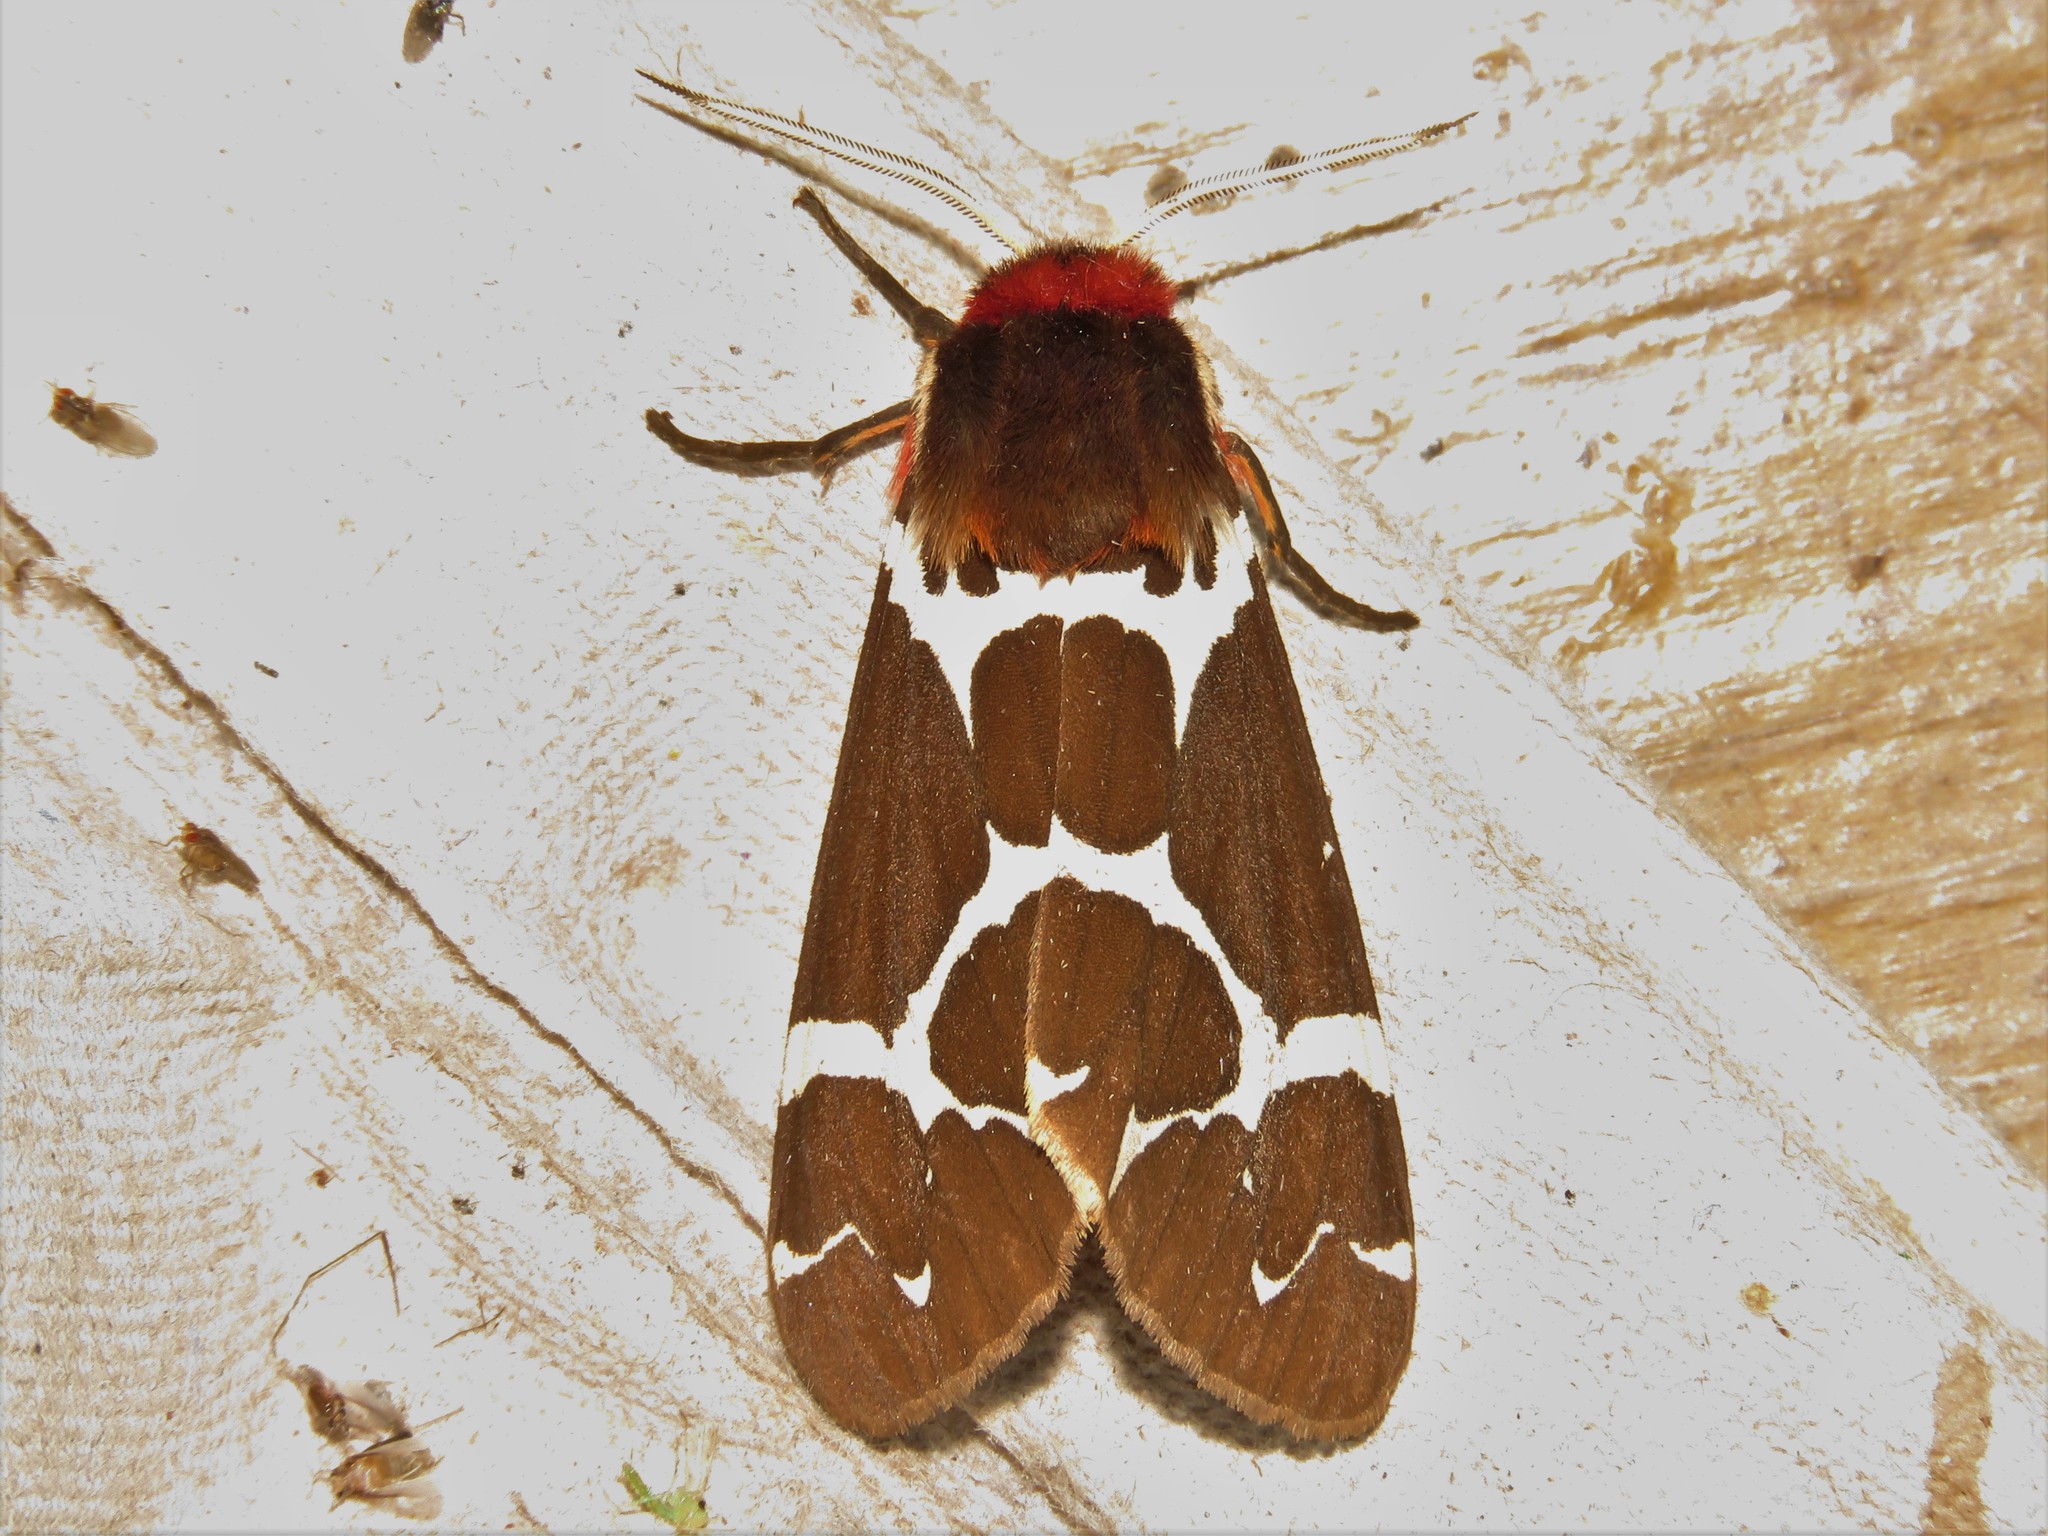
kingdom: Animalia
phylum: Arthropoda
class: Insecta
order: Lepidoptera
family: Erebidae
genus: Arctia
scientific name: Arctia caja
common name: Garden tiger
